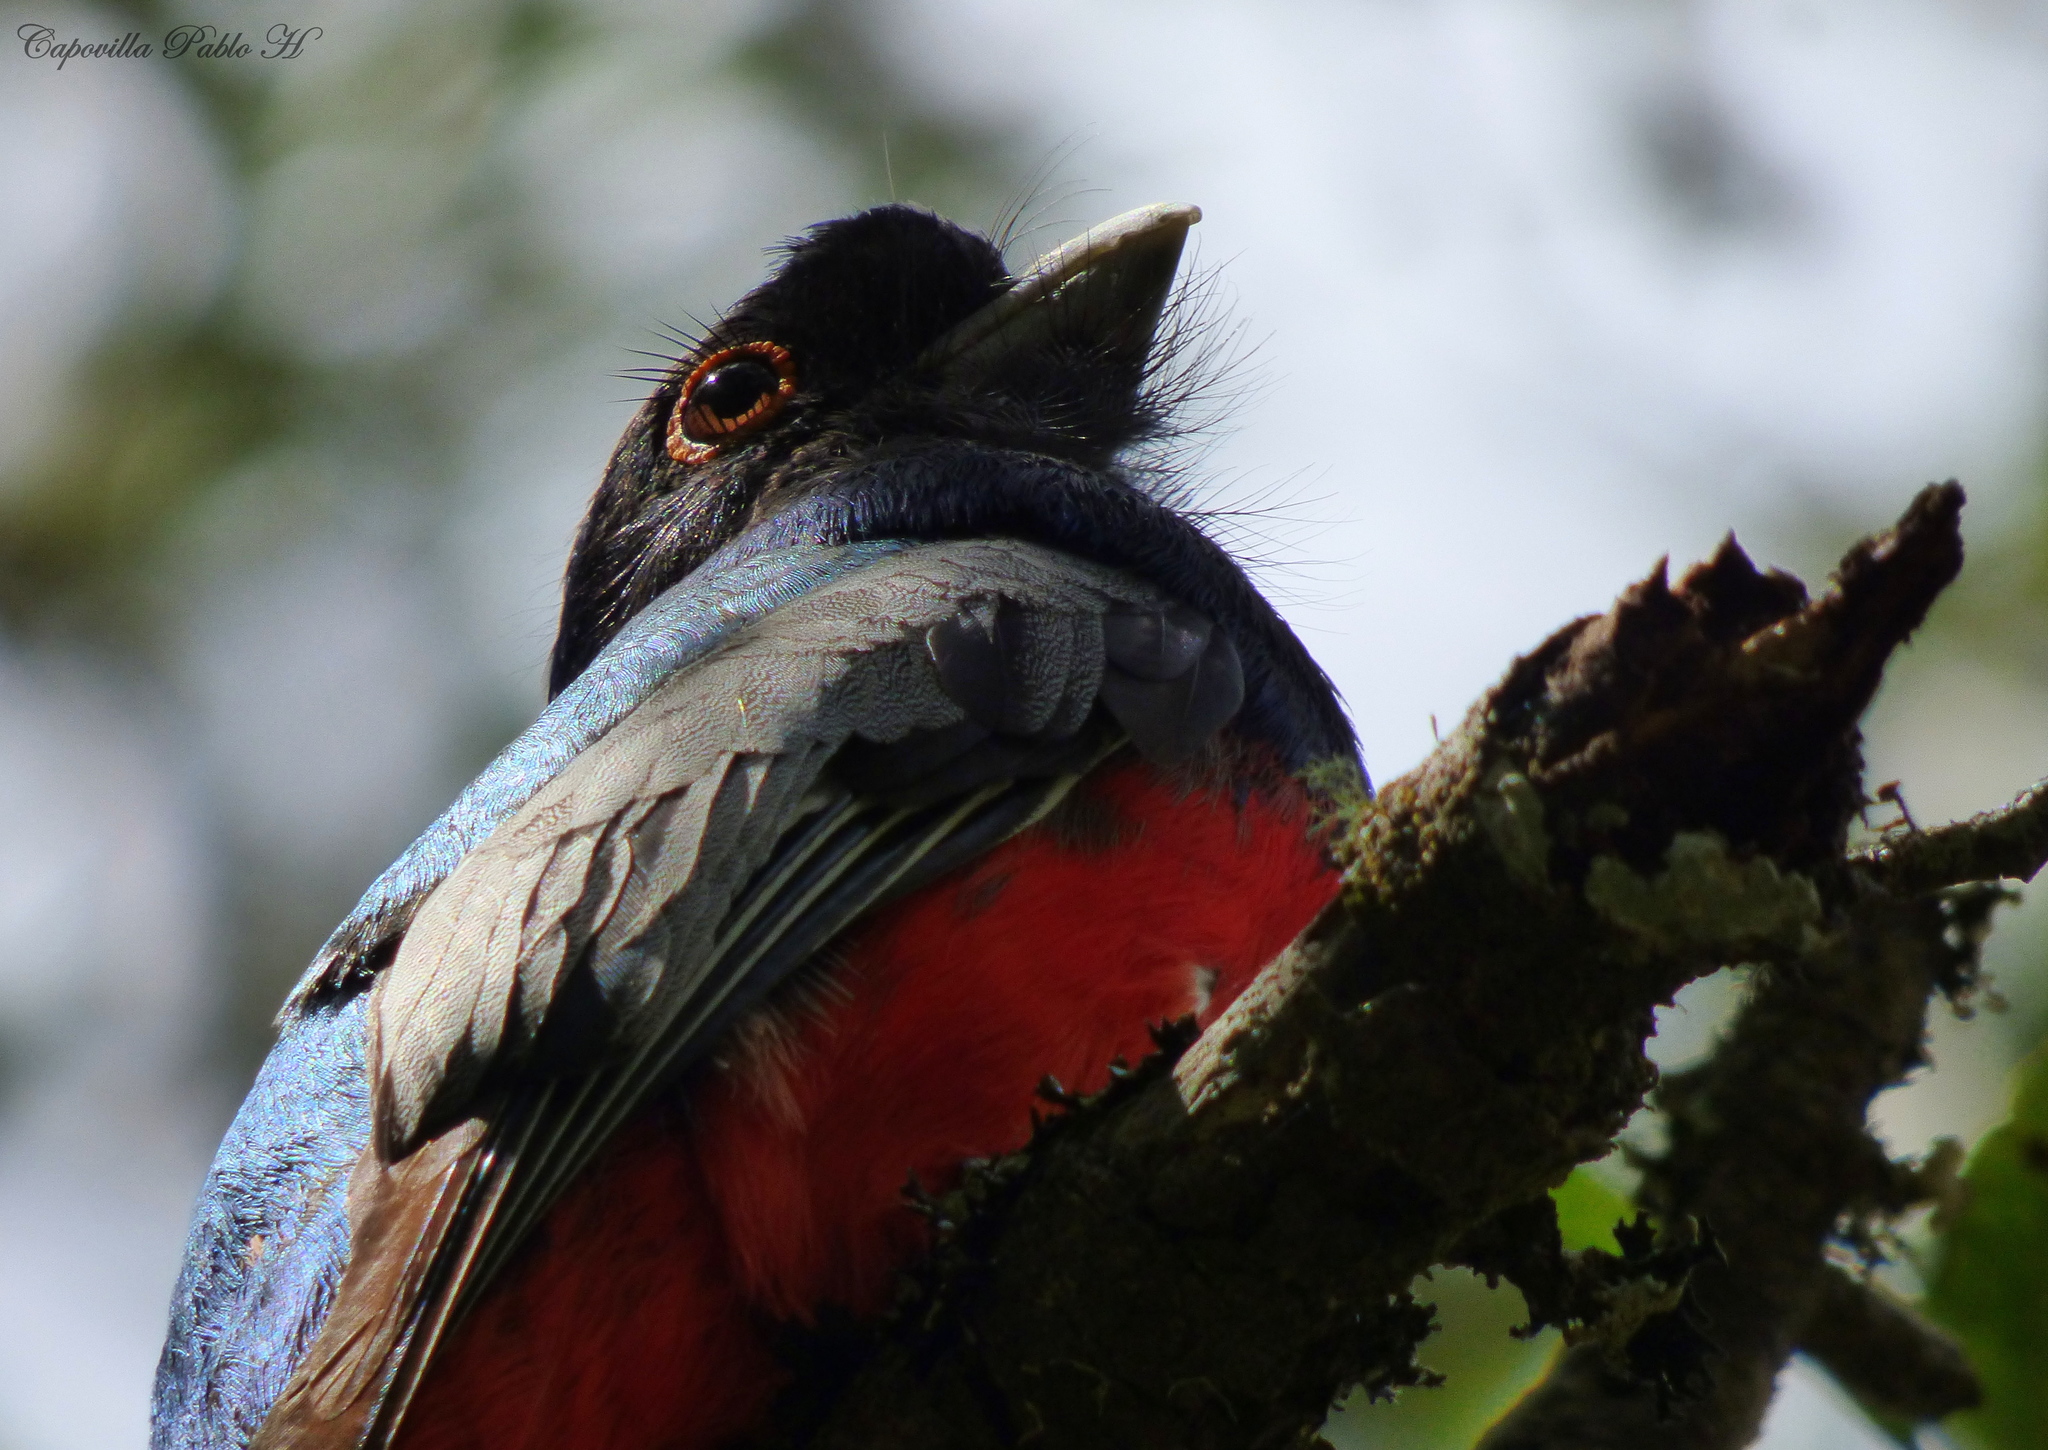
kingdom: Animalia
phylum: Chordata
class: Aves
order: Trogoniformes
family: Trogonidae
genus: Trogon
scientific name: Trogon surrucura
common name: Surucua trogon
